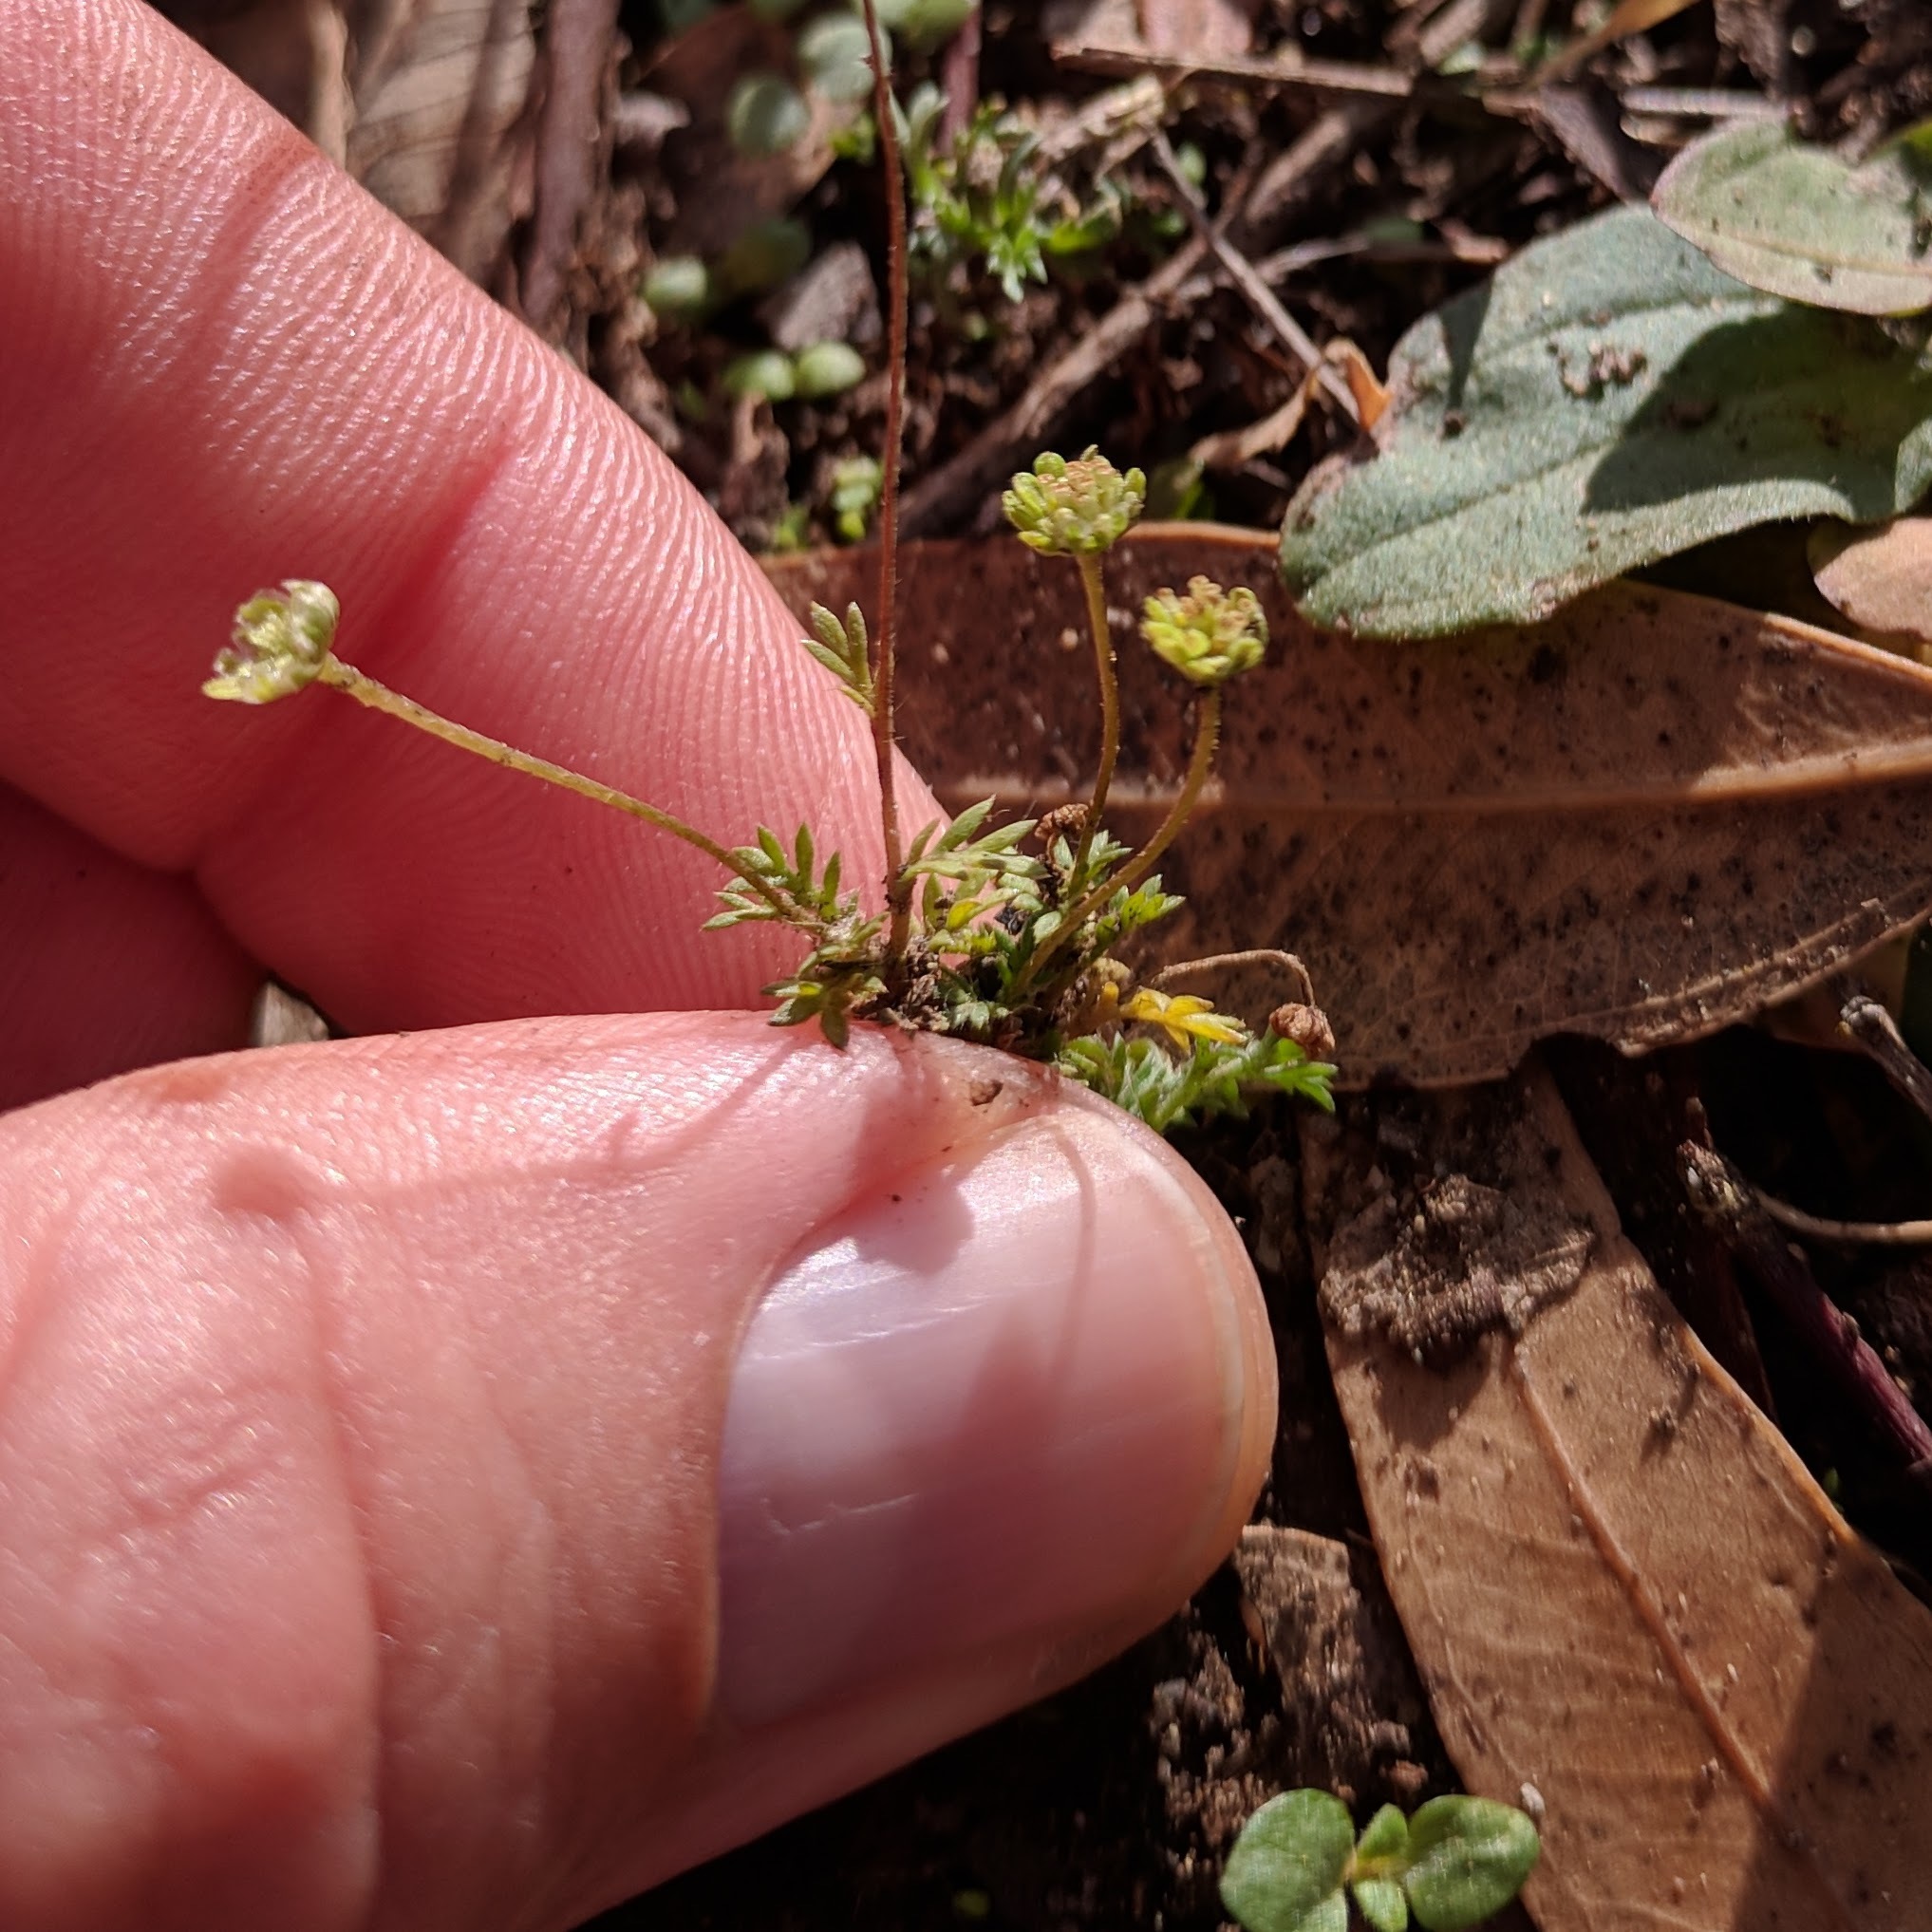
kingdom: Plantae
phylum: Tracheophyta
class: Magnoliopsida
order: Asterales
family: Asteraceae
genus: Cotula
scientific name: Cotula australis
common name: Australian waterbuttons
